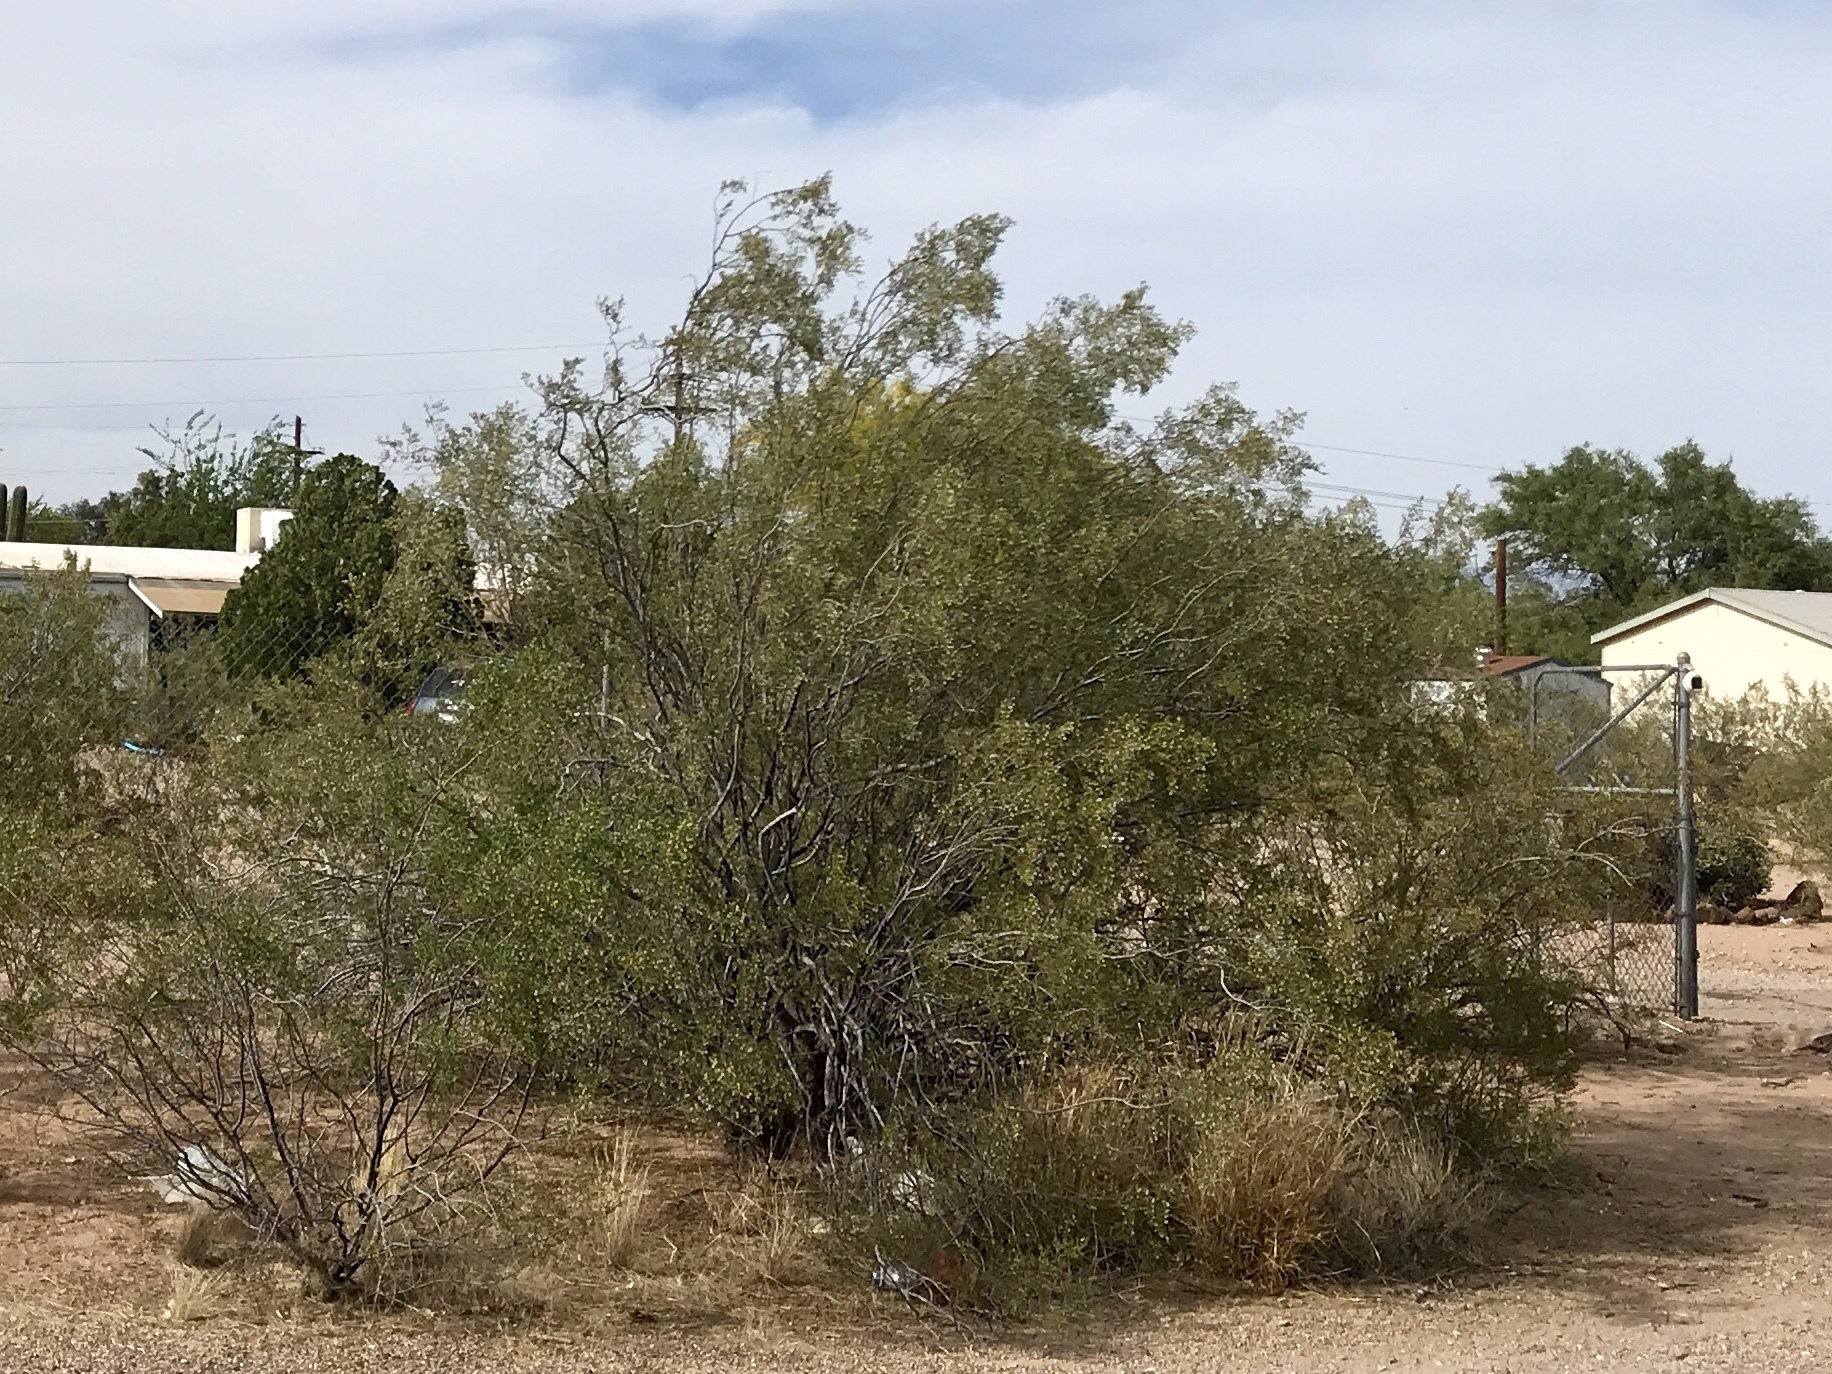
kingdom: Plantae
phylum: Tracheophyta
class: Magnoliopsida
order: Zygophyllales
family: Zygophyllaceae
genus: Larrea
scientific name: Larrea tridentata
